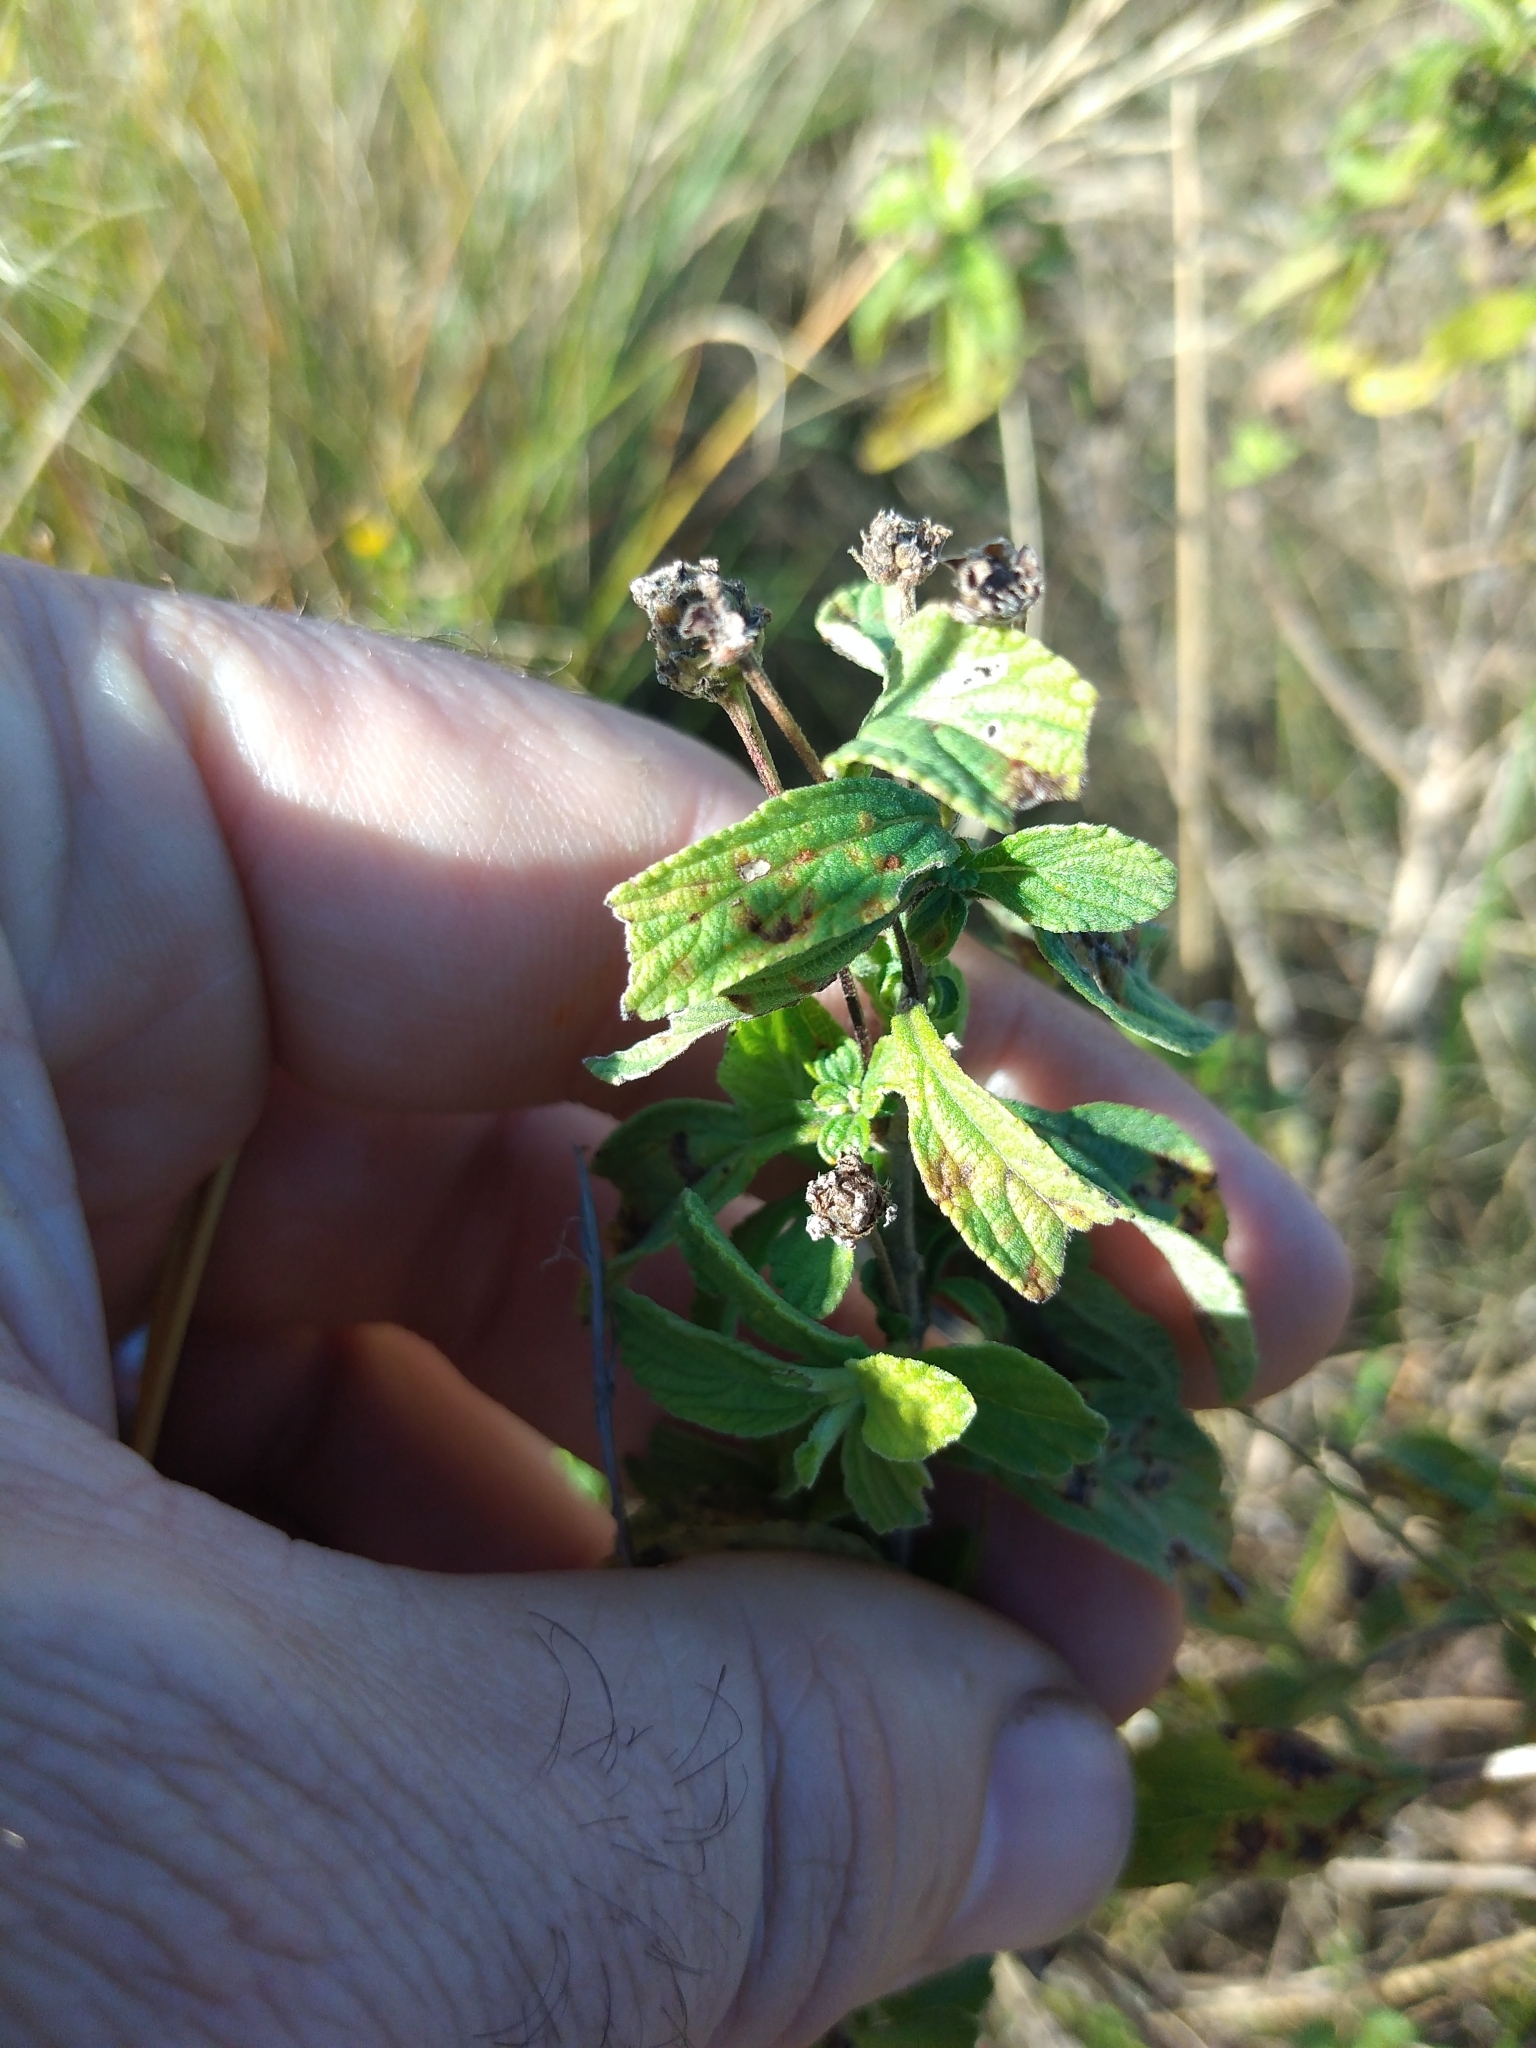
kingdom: Plantae
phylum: Tracheophyta
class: Magnoliopsida
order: Lamiales
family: Verbenaceae
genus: Lippia
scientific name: Lippia javanica
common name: Lemonbush
